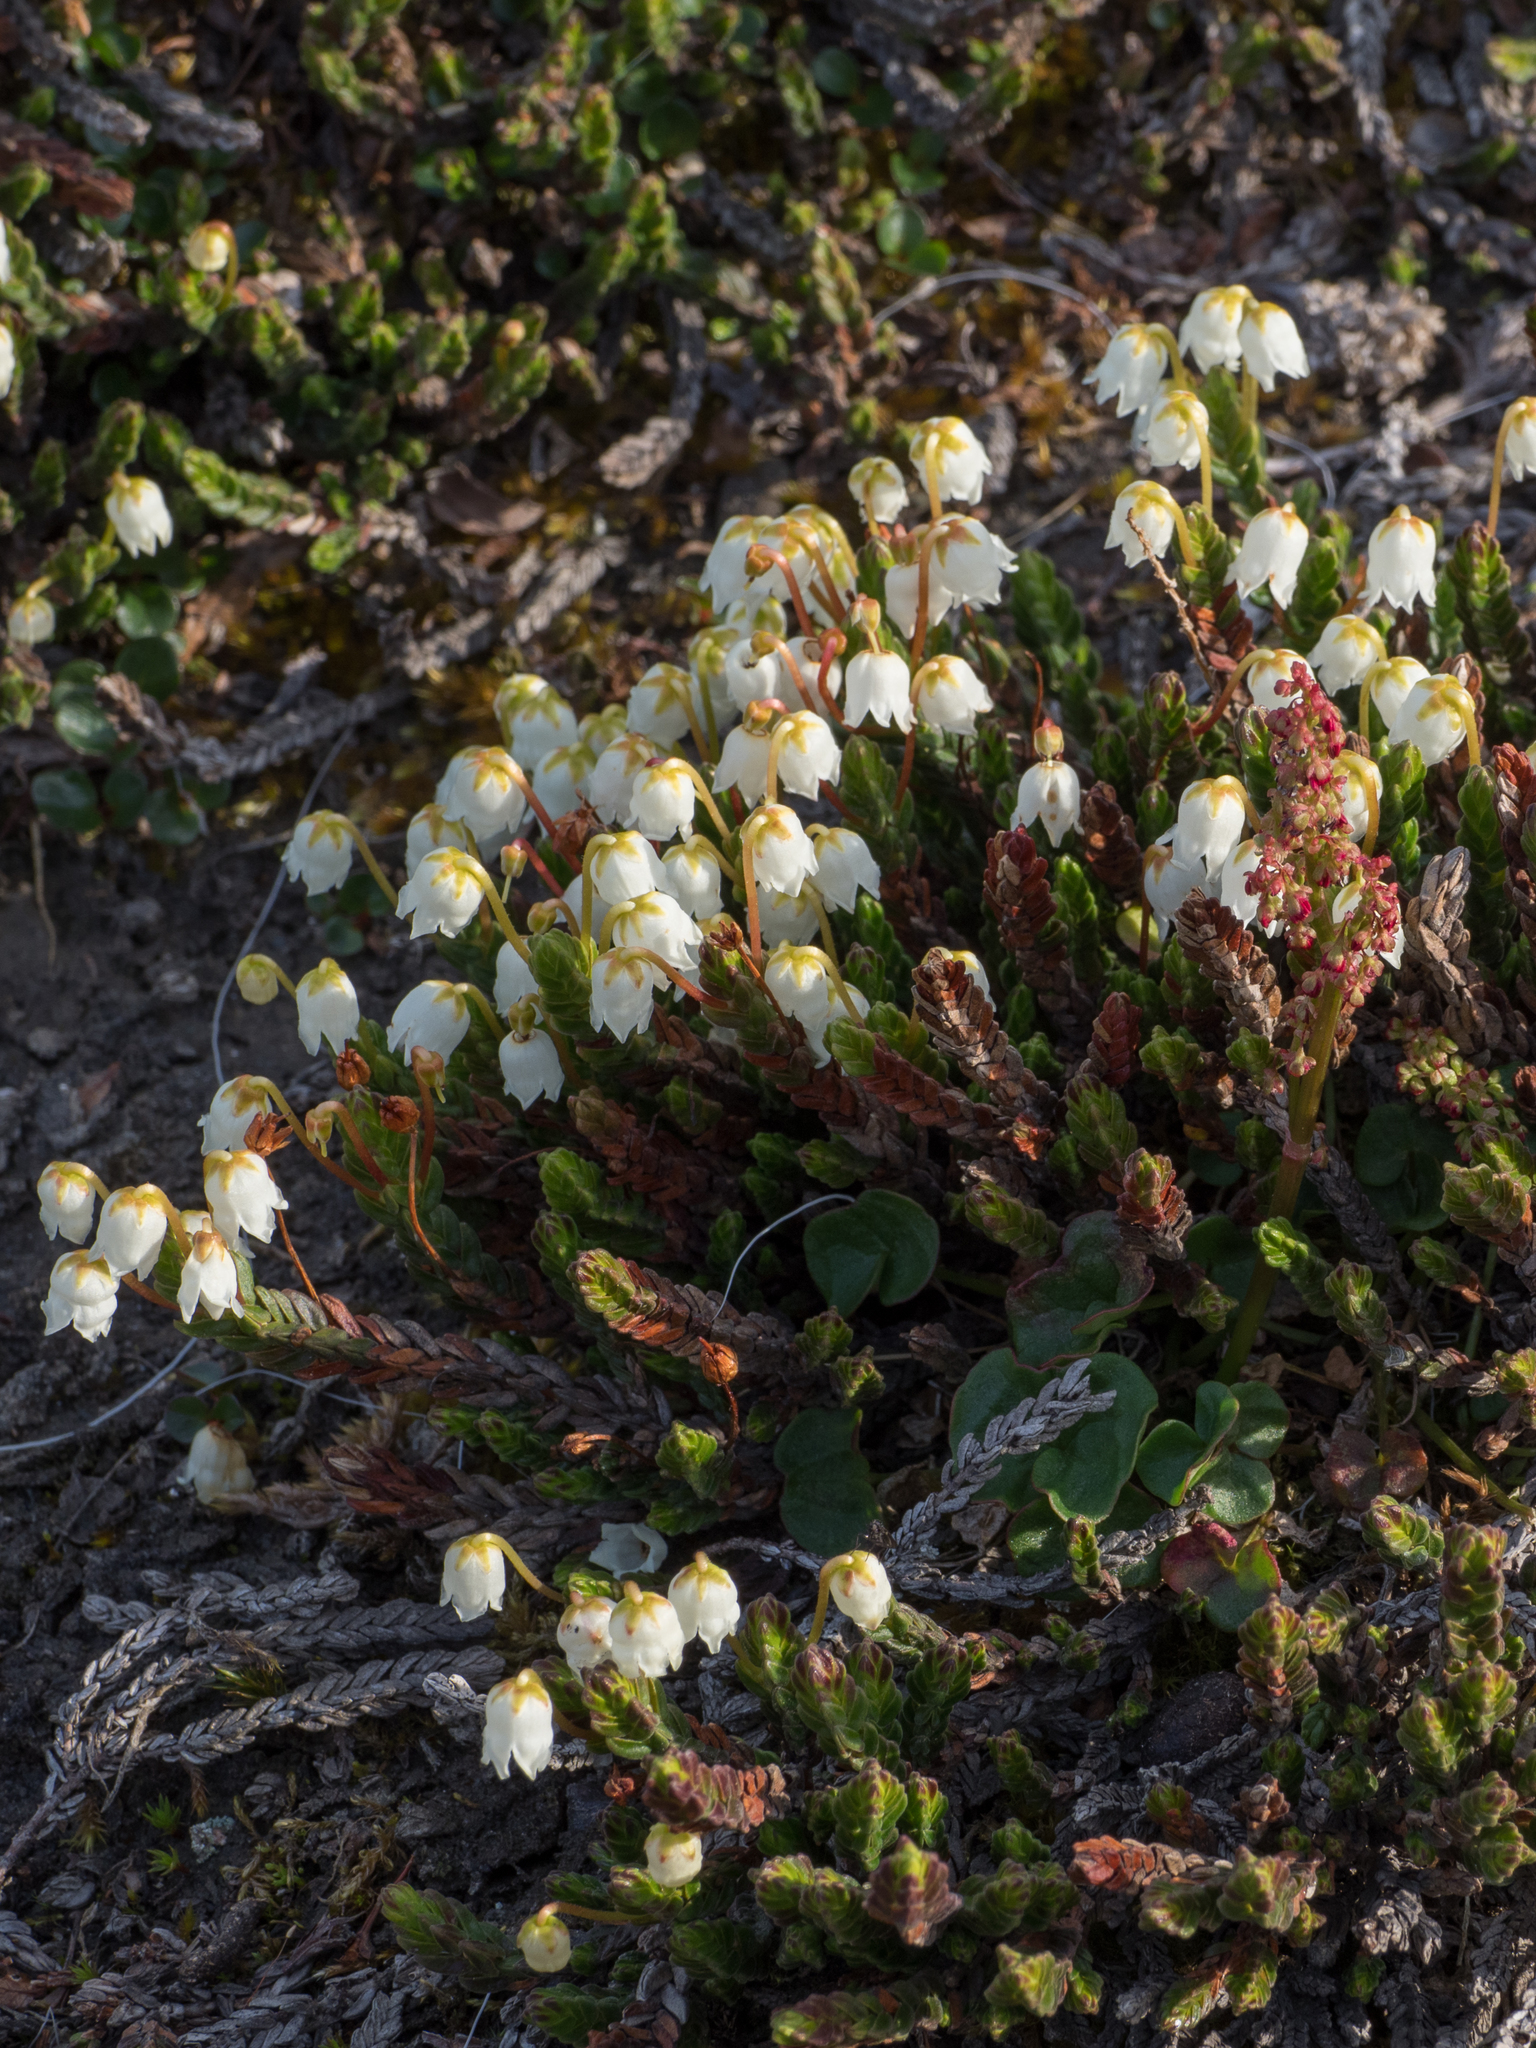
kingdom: Plantae
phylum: Tracheophyta
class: Magnoliopsida
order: Ericales
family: Ericaceae
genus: Cassiope
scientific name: Cassiope tetragona
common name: Arctic bell heather
